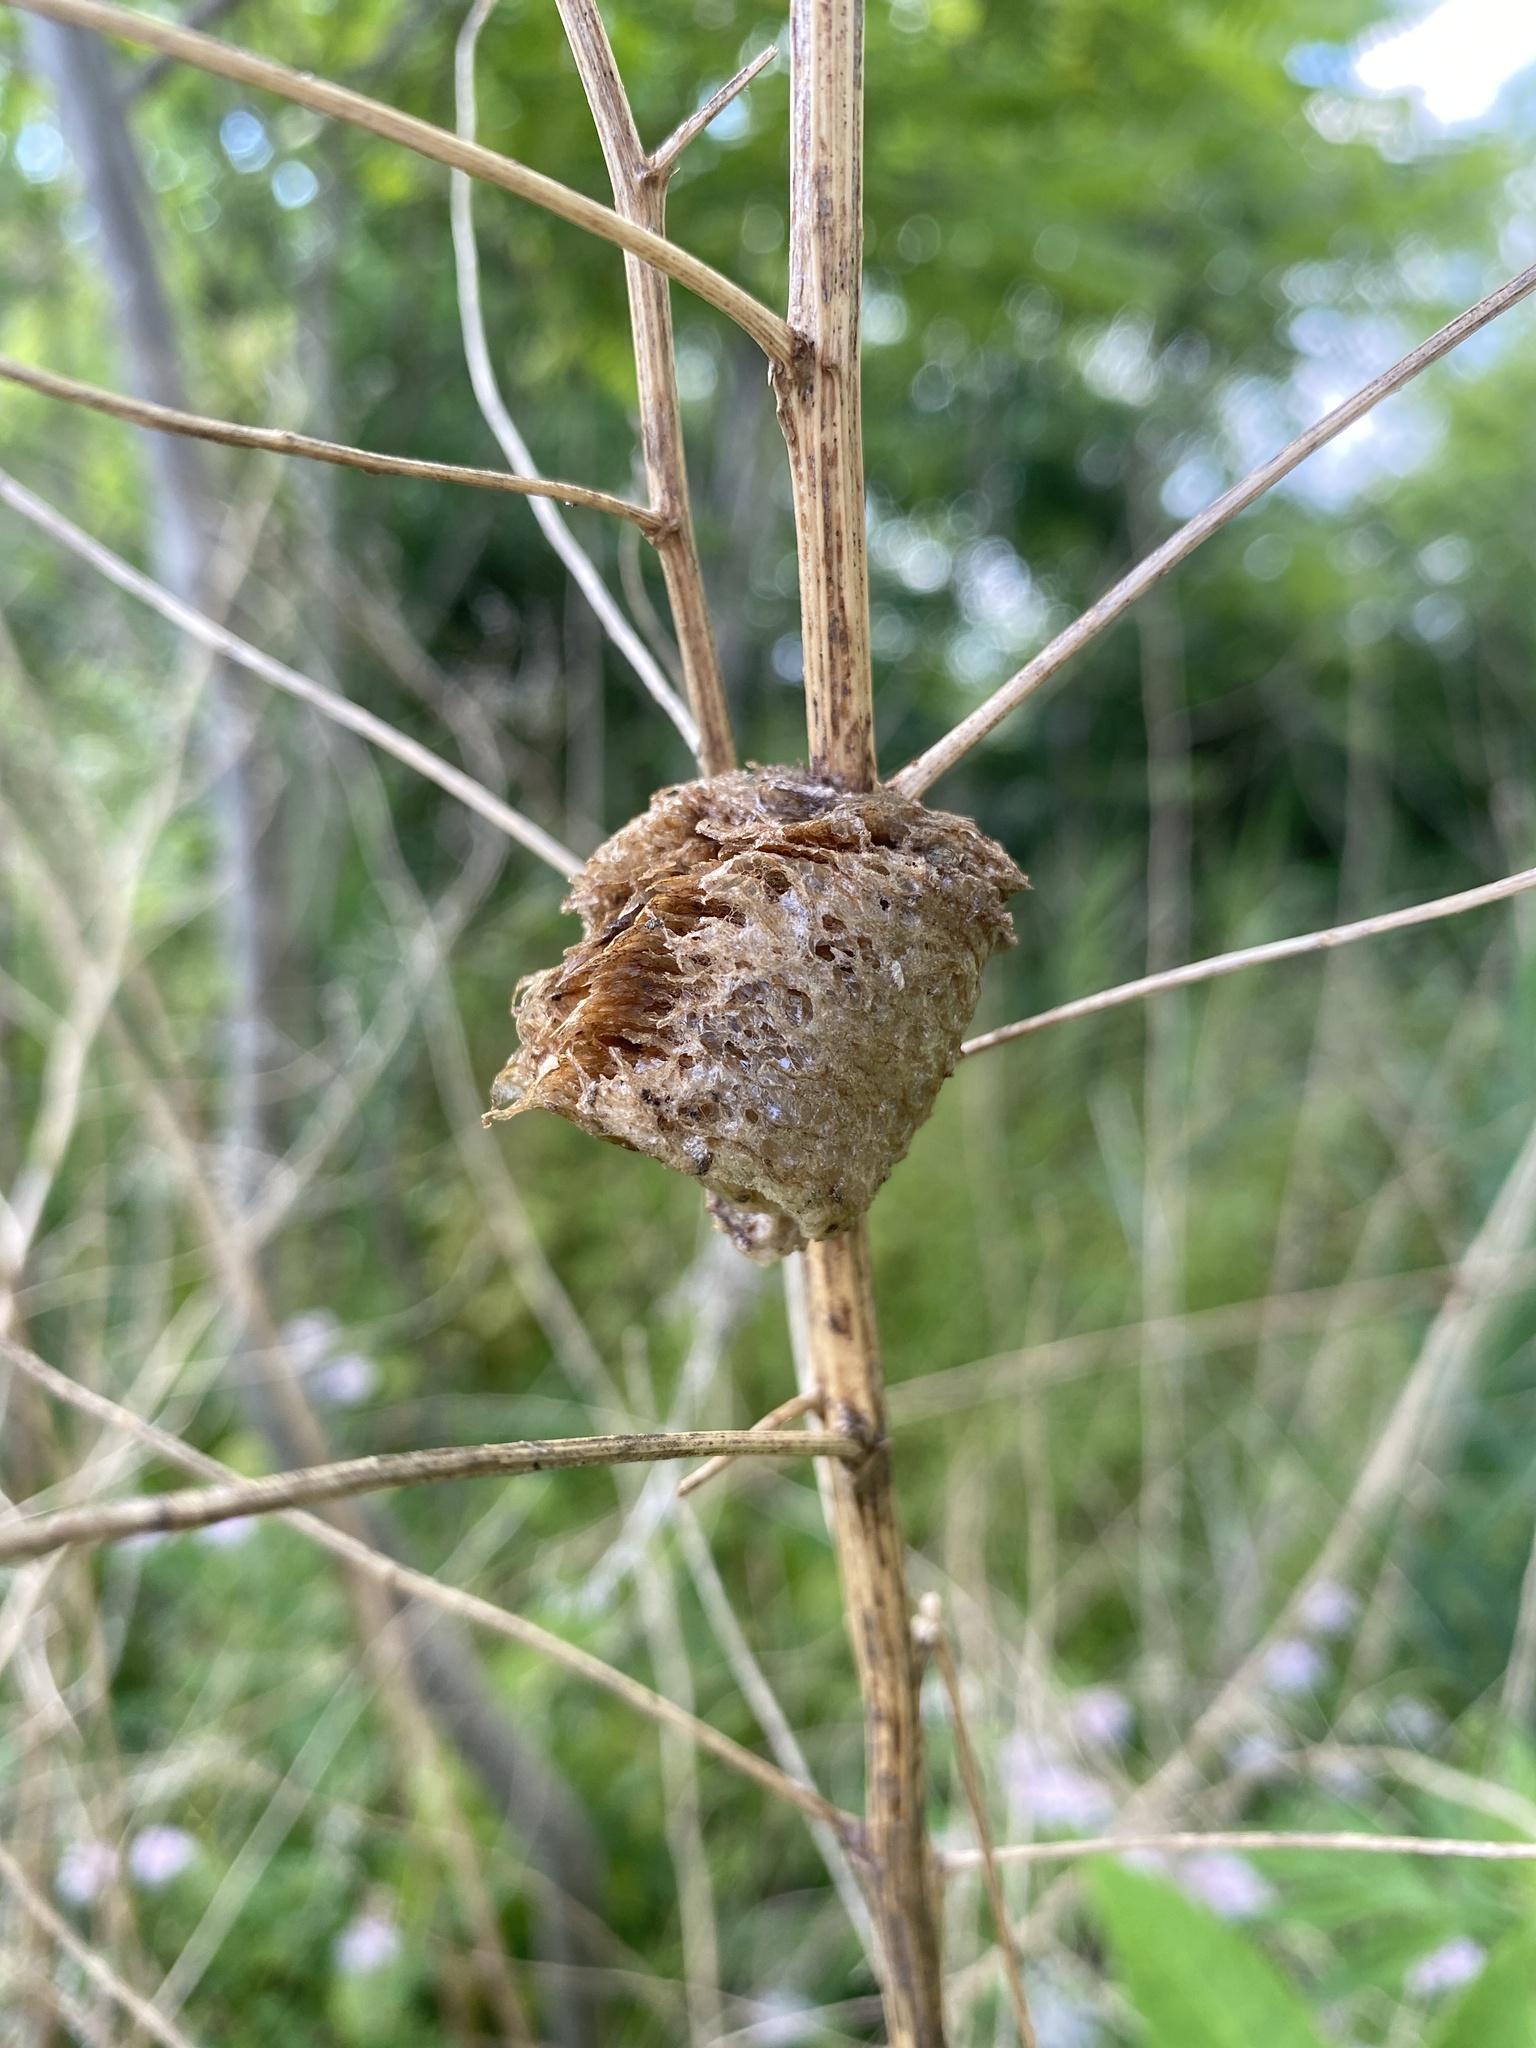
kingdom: Animalia
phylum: Arthropoda
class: Insecta
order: Mantodea
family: Mantidae
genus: Tenodera
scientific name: Tenodera sinensis
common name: Chinese mantis
